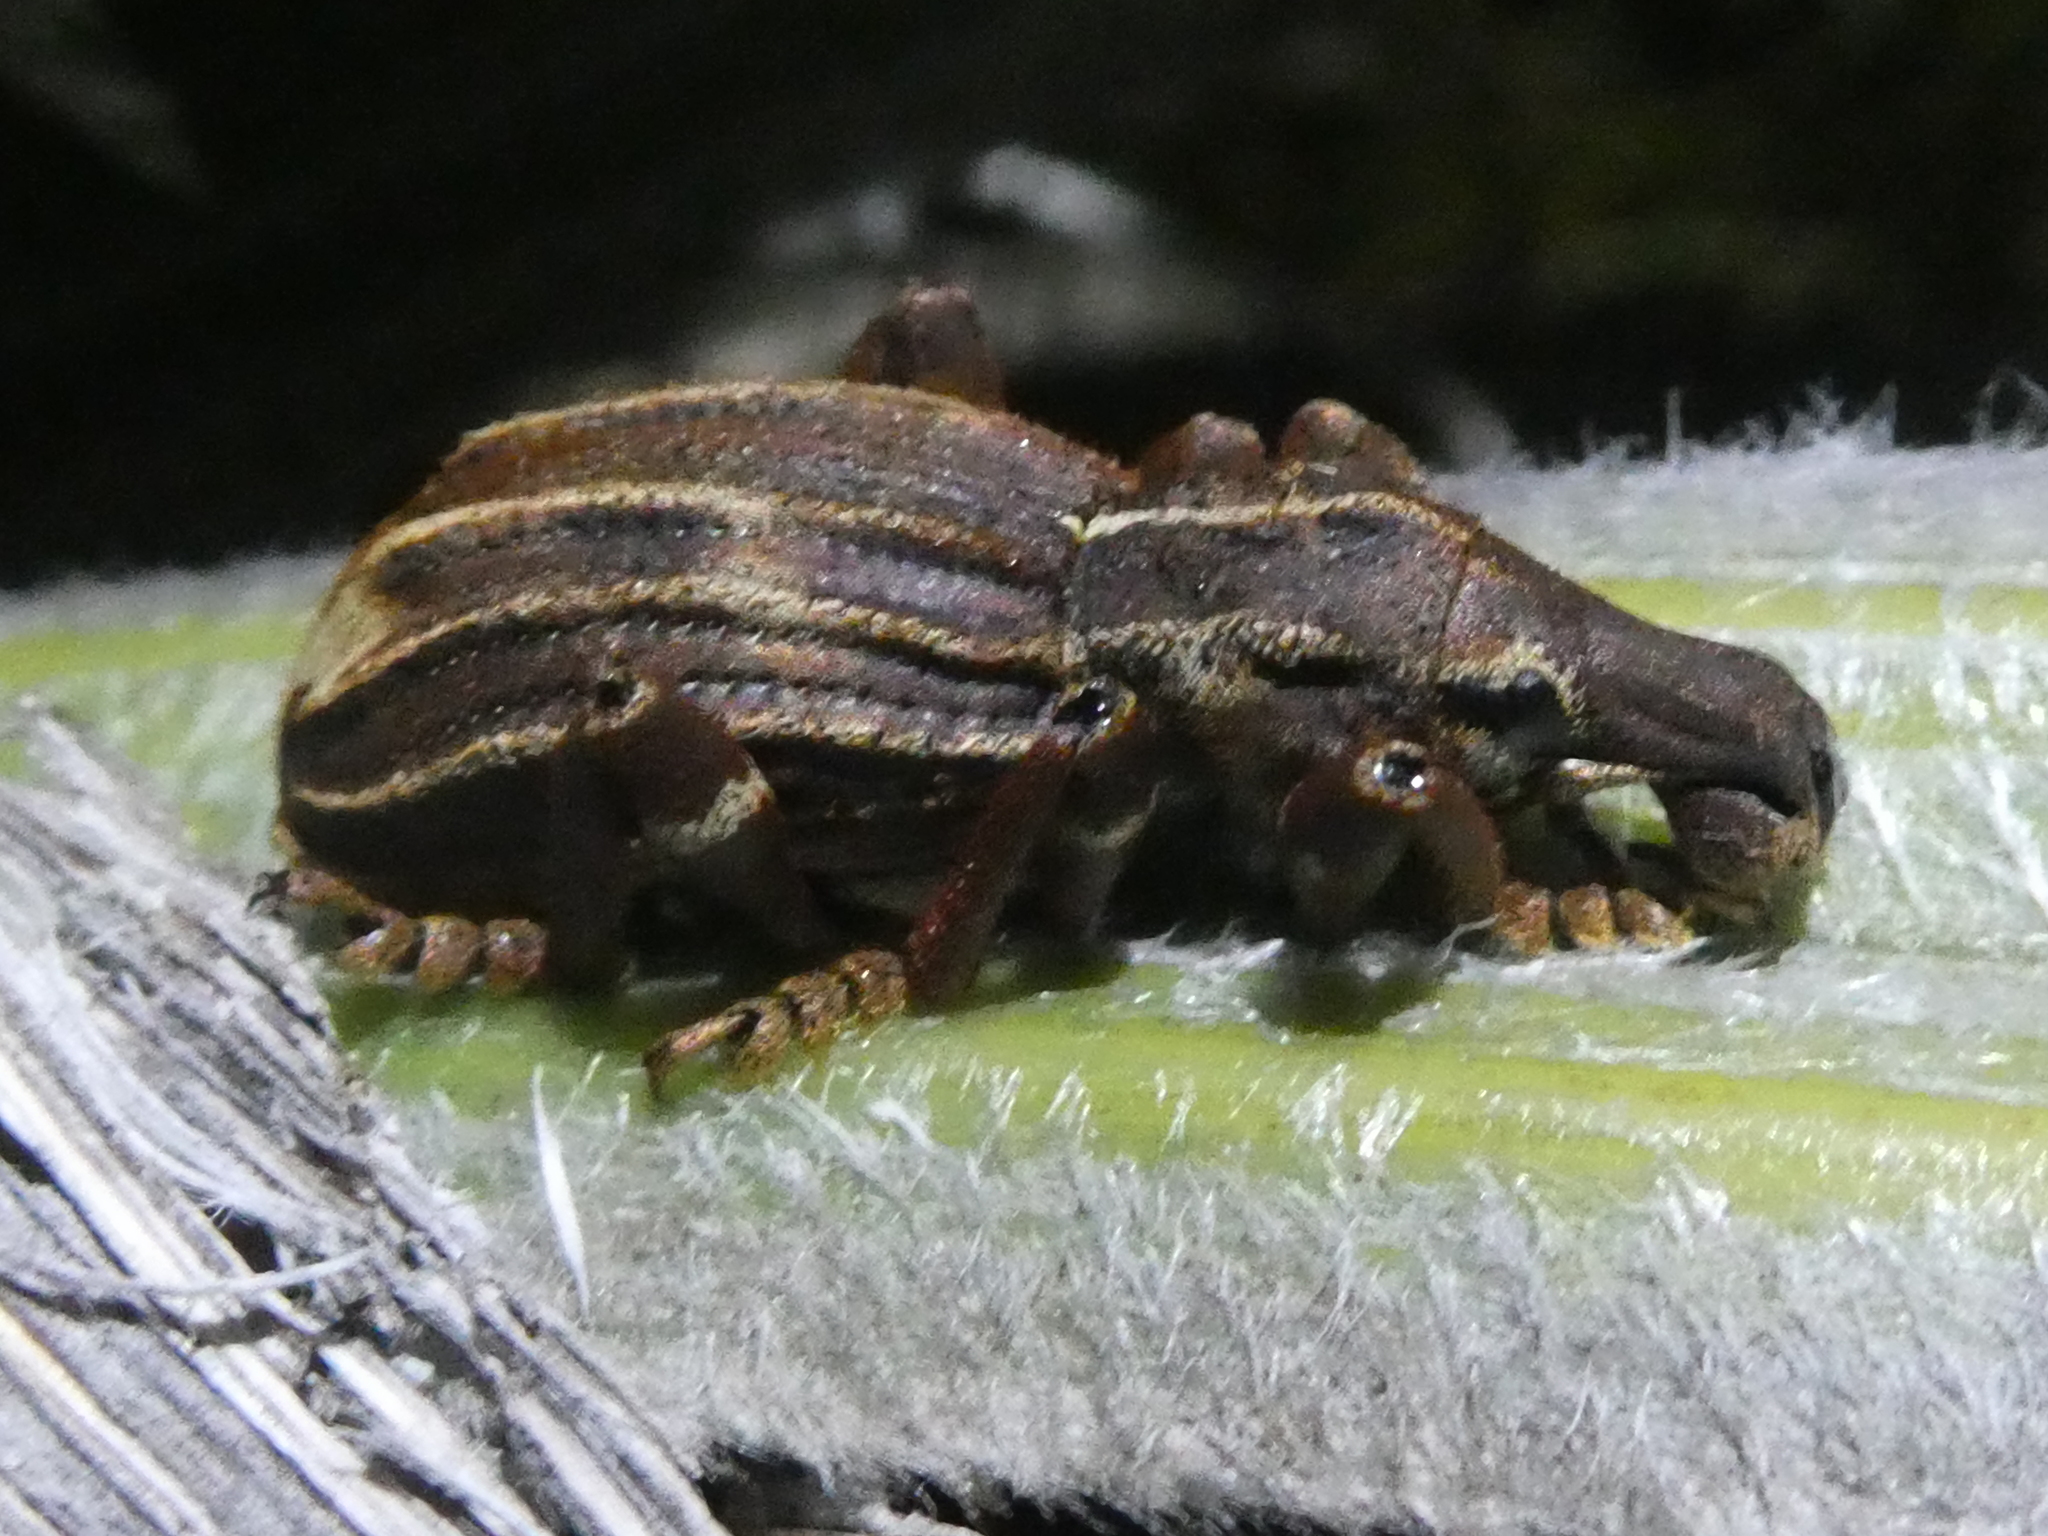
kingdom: Animalia
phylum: Arthropoda
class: Insecta
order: Coleoptera
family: Curculionidae
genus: Anagotus
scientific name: Anagotus
